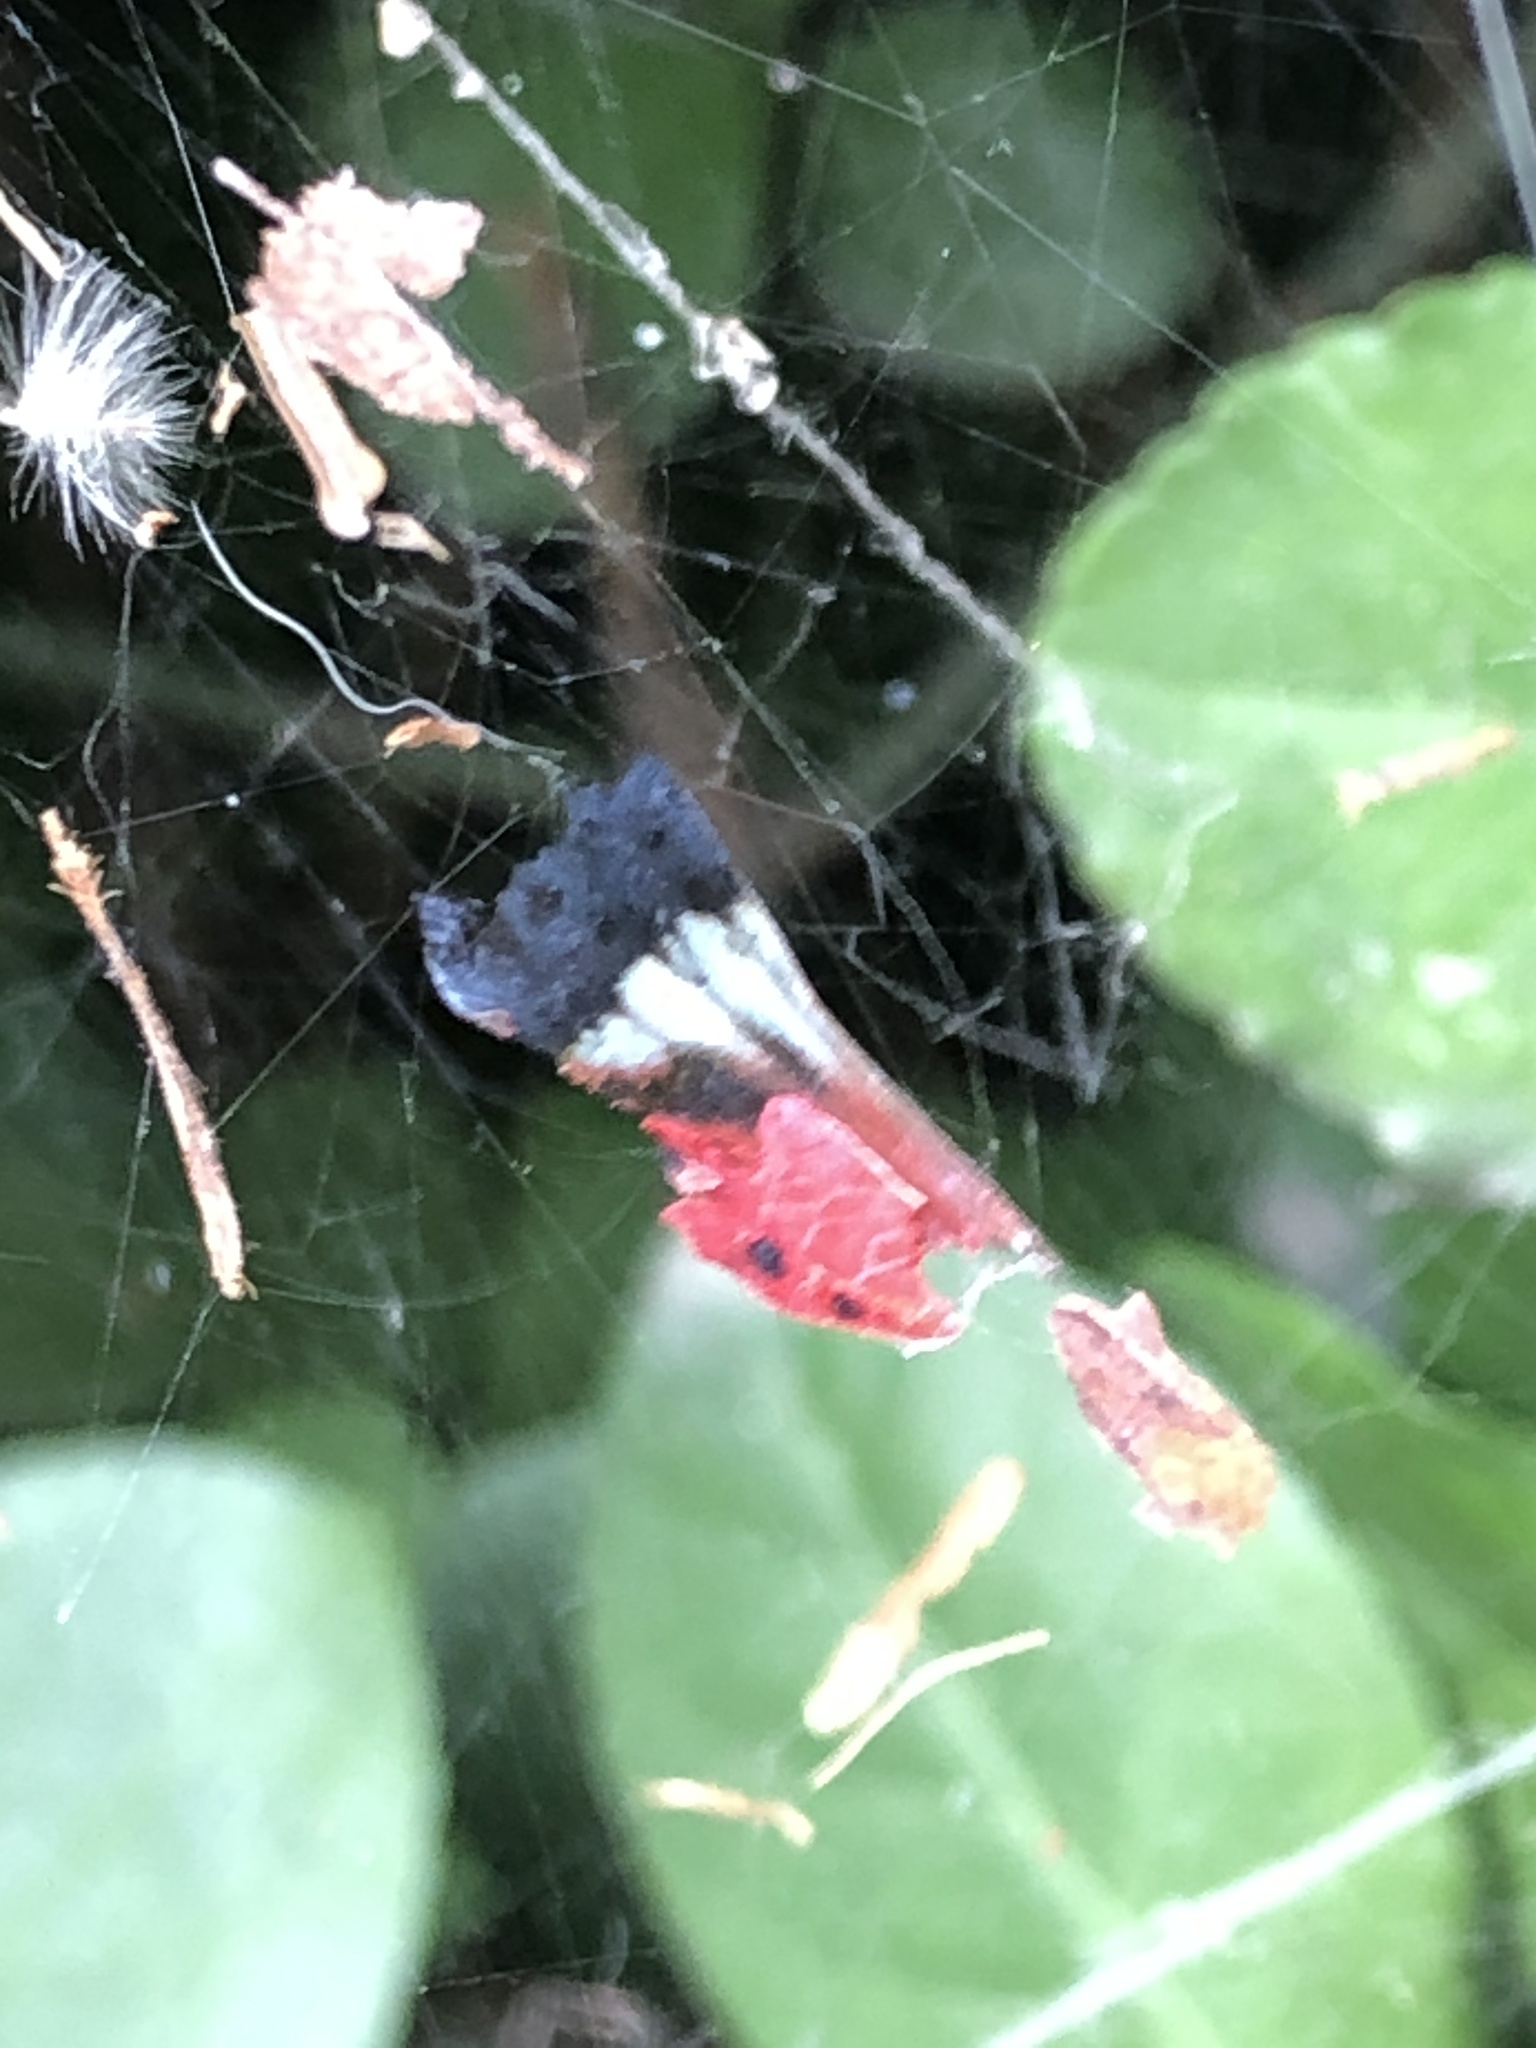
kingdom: Animalia
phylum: Arthropoda
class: Insecta
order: Hemiptera
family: Fulgoridae
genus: Lycorma
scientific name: Lycorma delicatula
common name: Spotted lanternfly
